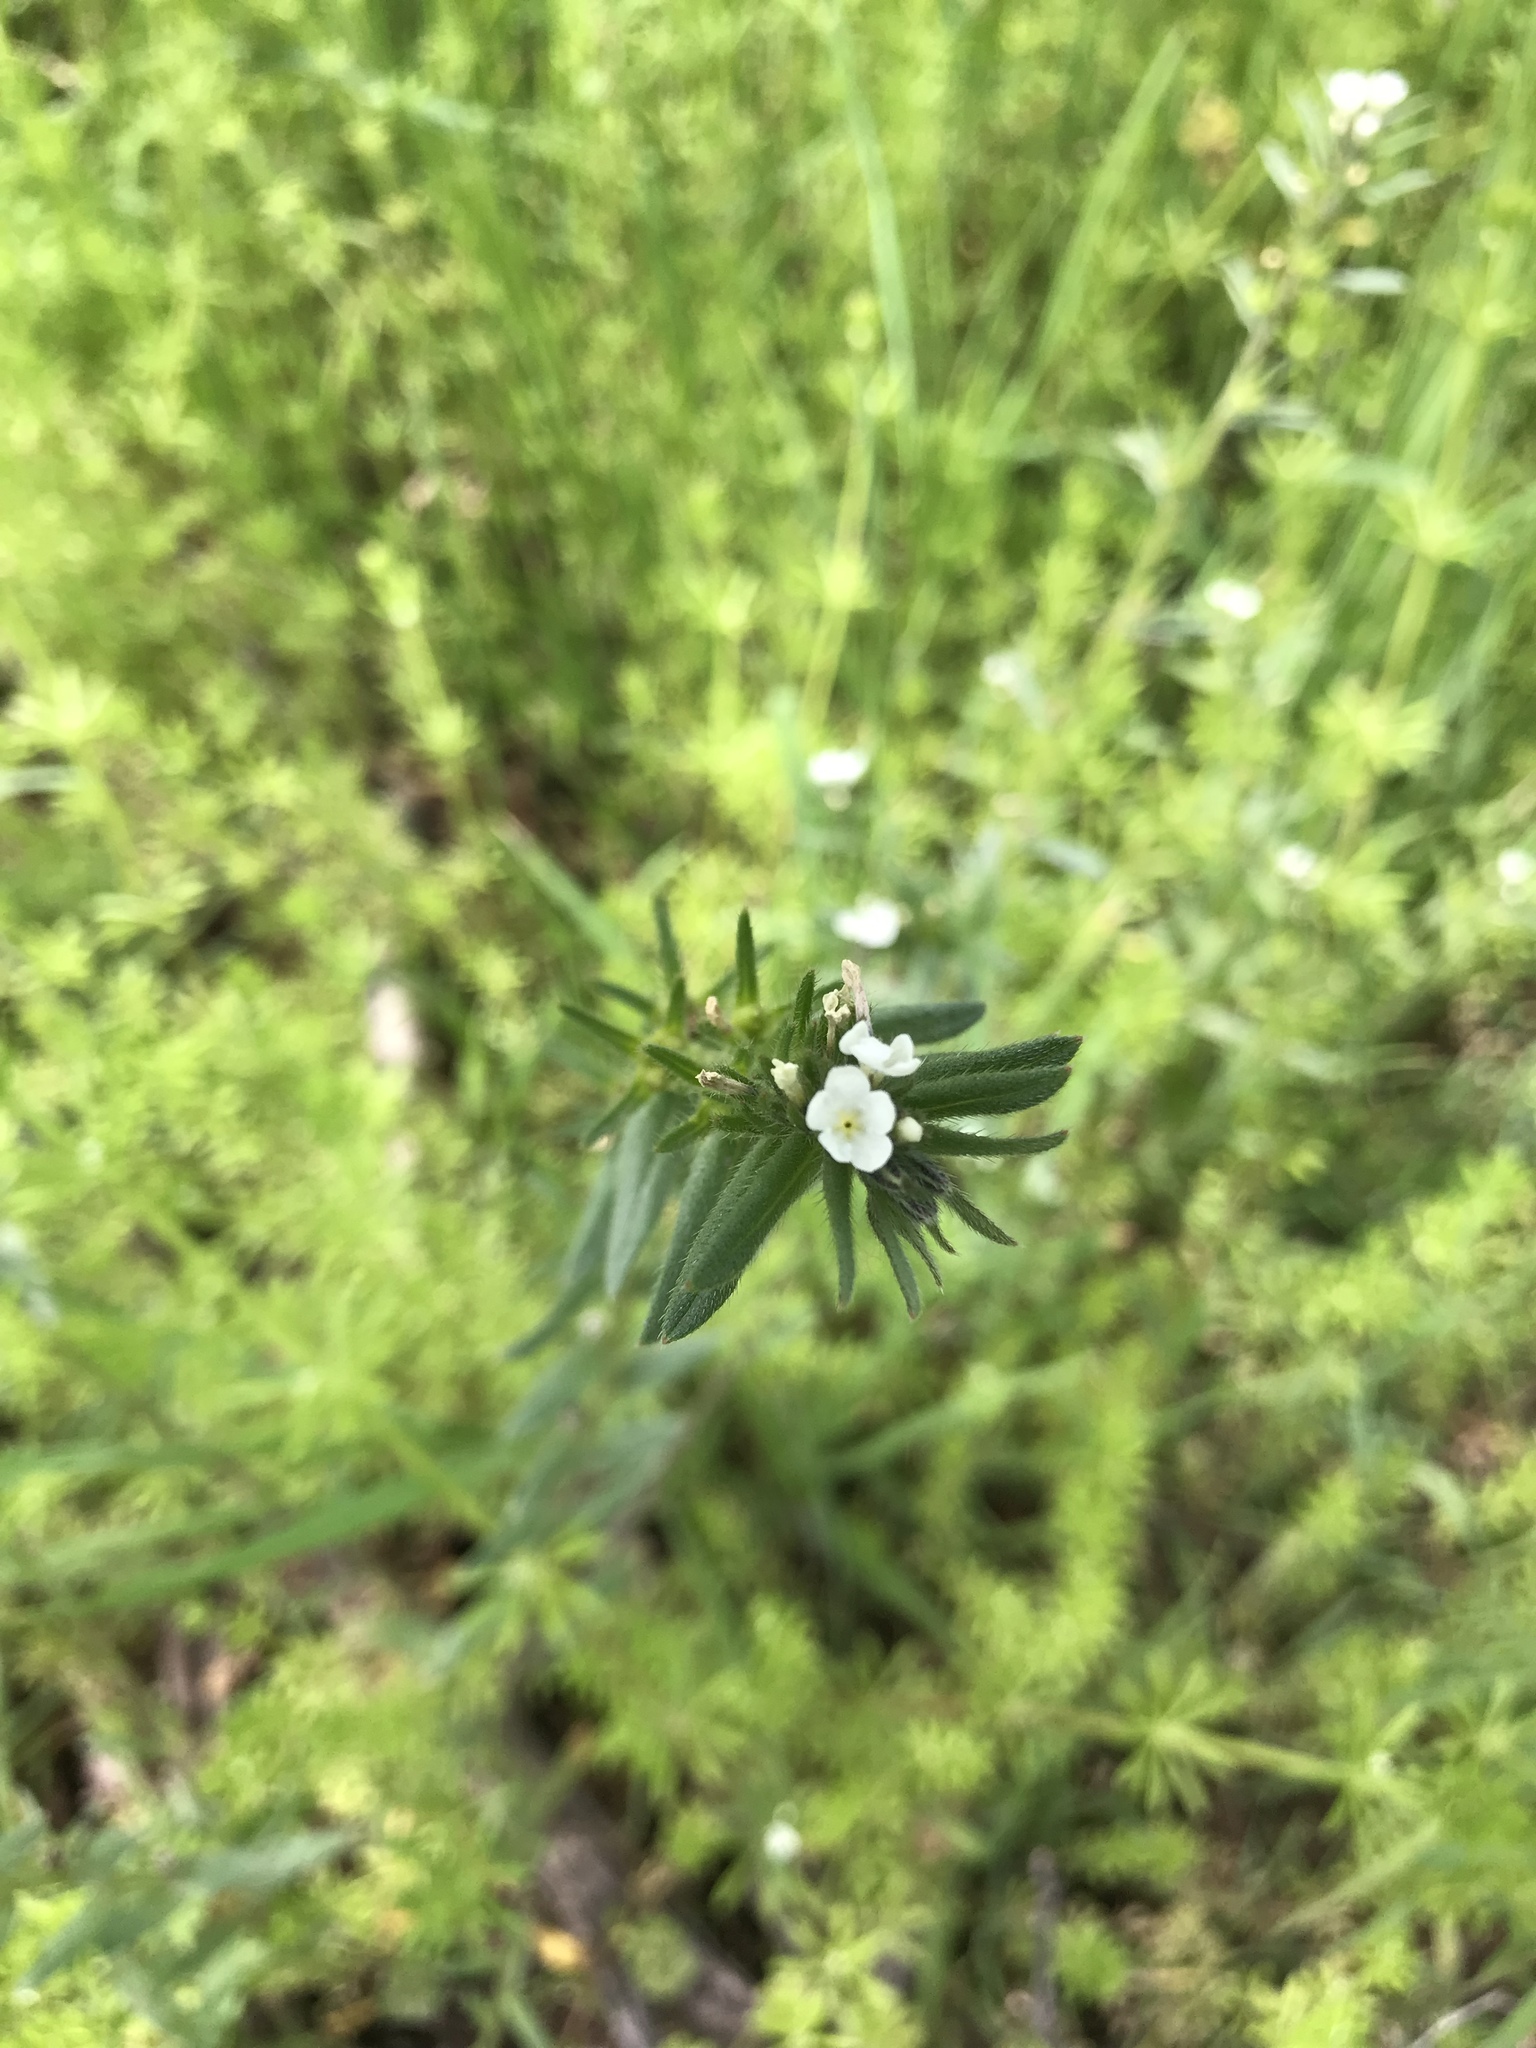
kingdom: Plantae
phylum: Tracheophyta
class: Magnoliopsida
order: Boraginales
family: Boraginaceae
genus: Buglossoides
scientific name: Buglossoides arvensis
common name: Corn gromwell
